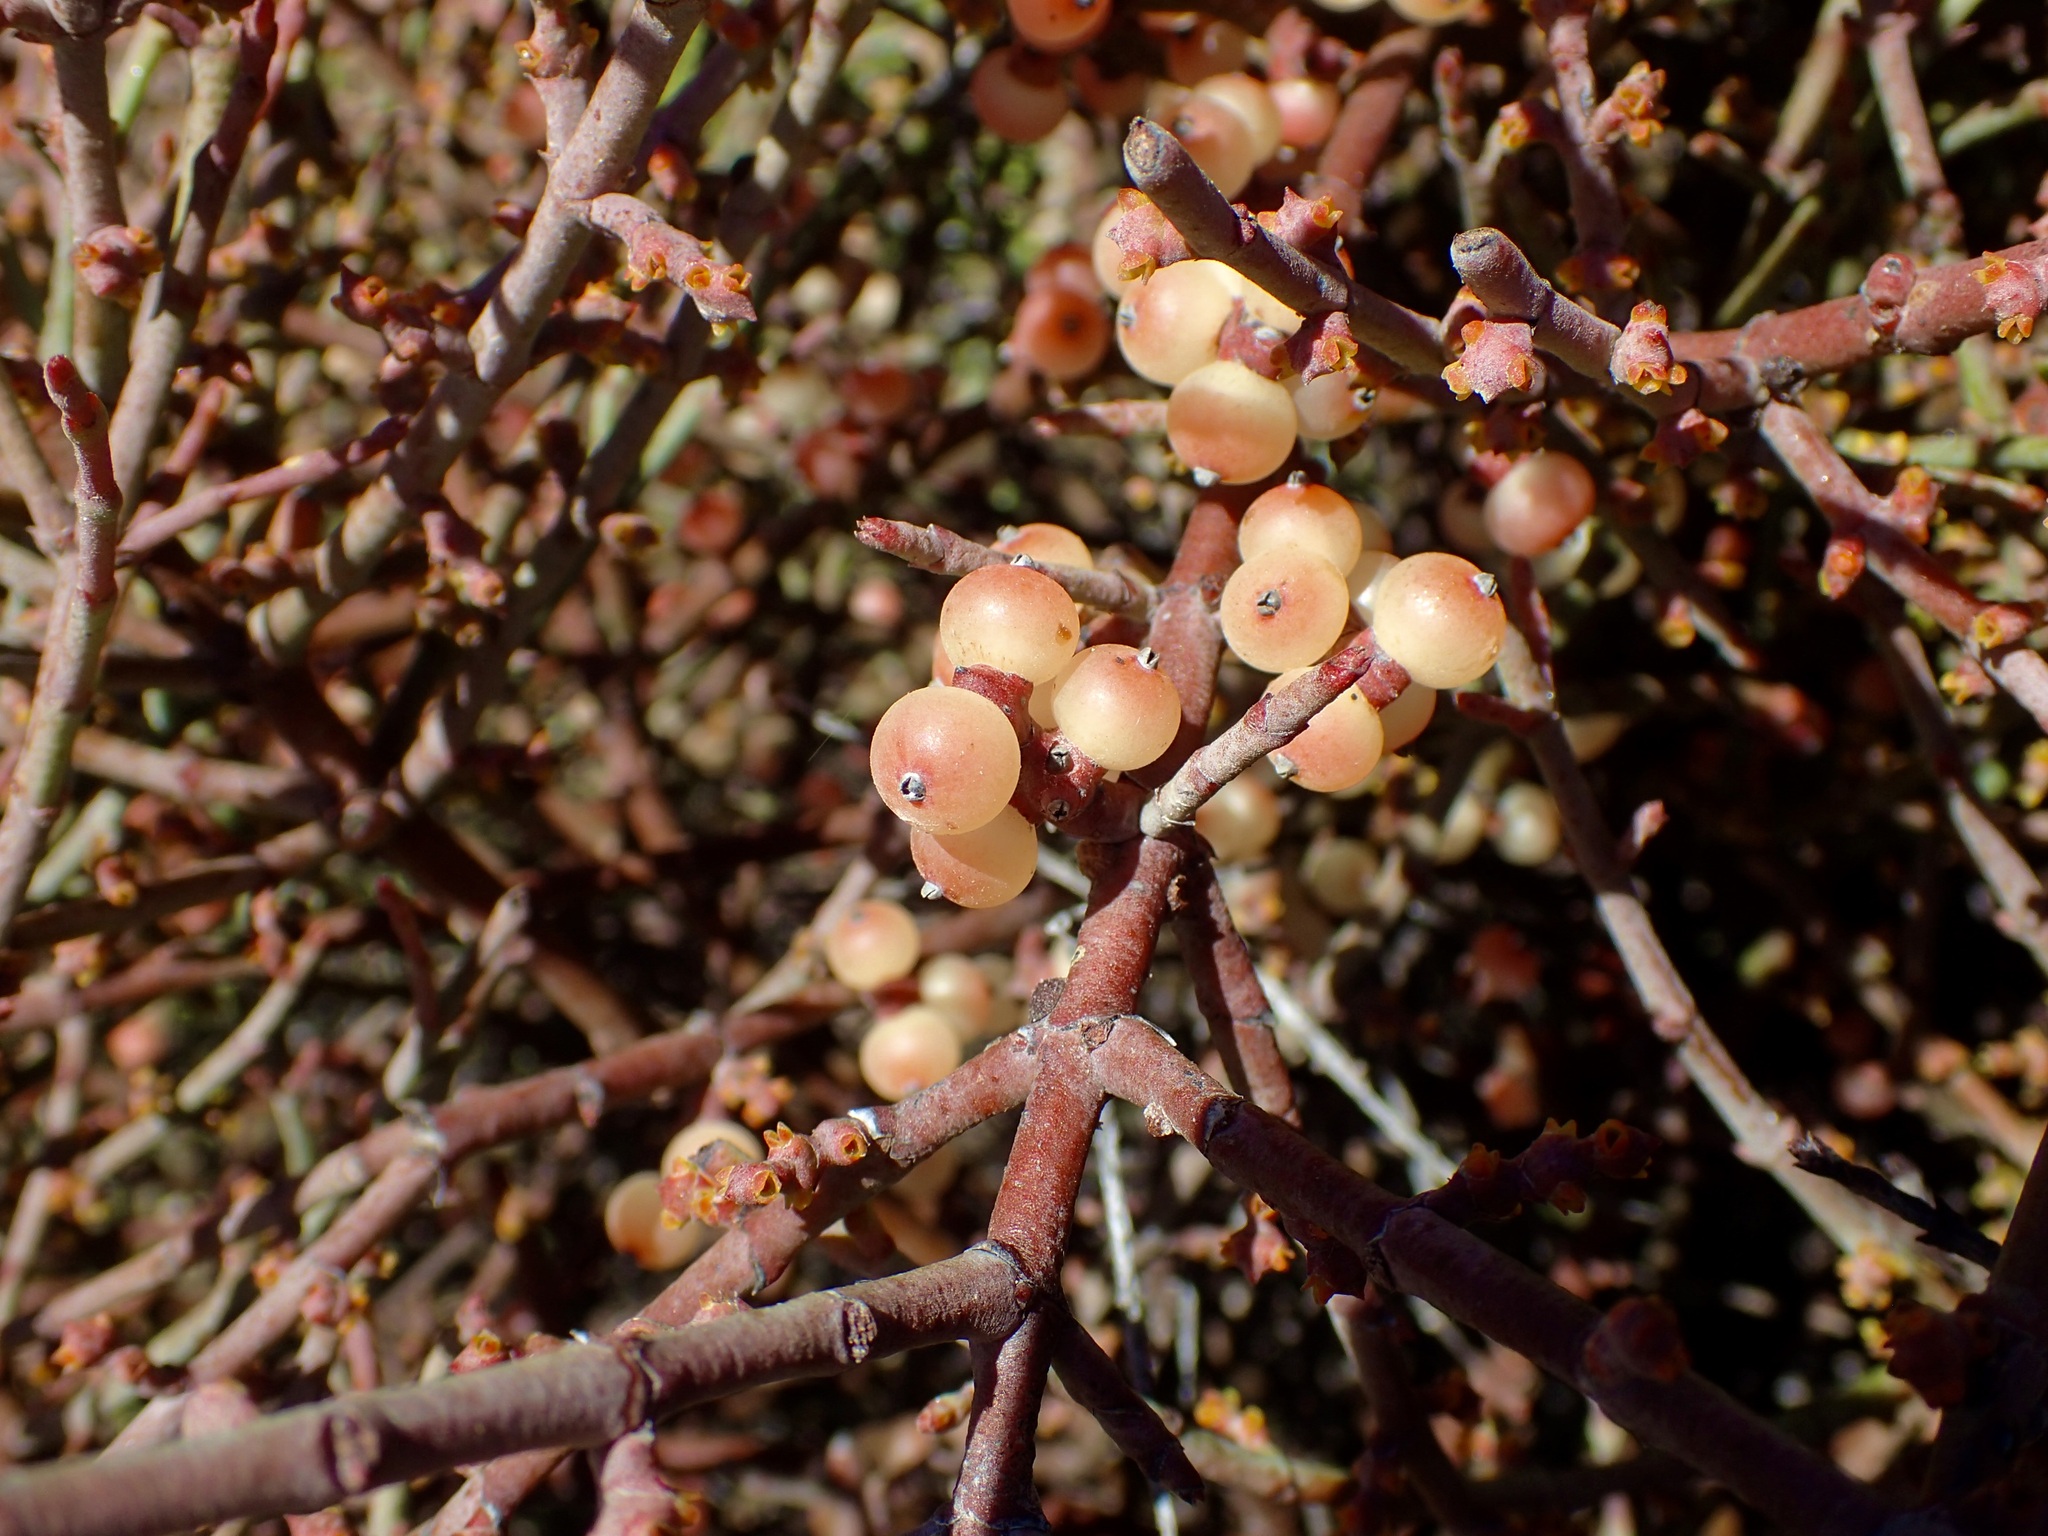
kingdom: Plantae
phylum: Tracheophyta
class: Magnoliopsida
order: Santalales
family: Viscaceae
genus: Phoradendron
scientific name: Phoradendron californicum
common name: Acacia mistletoe
